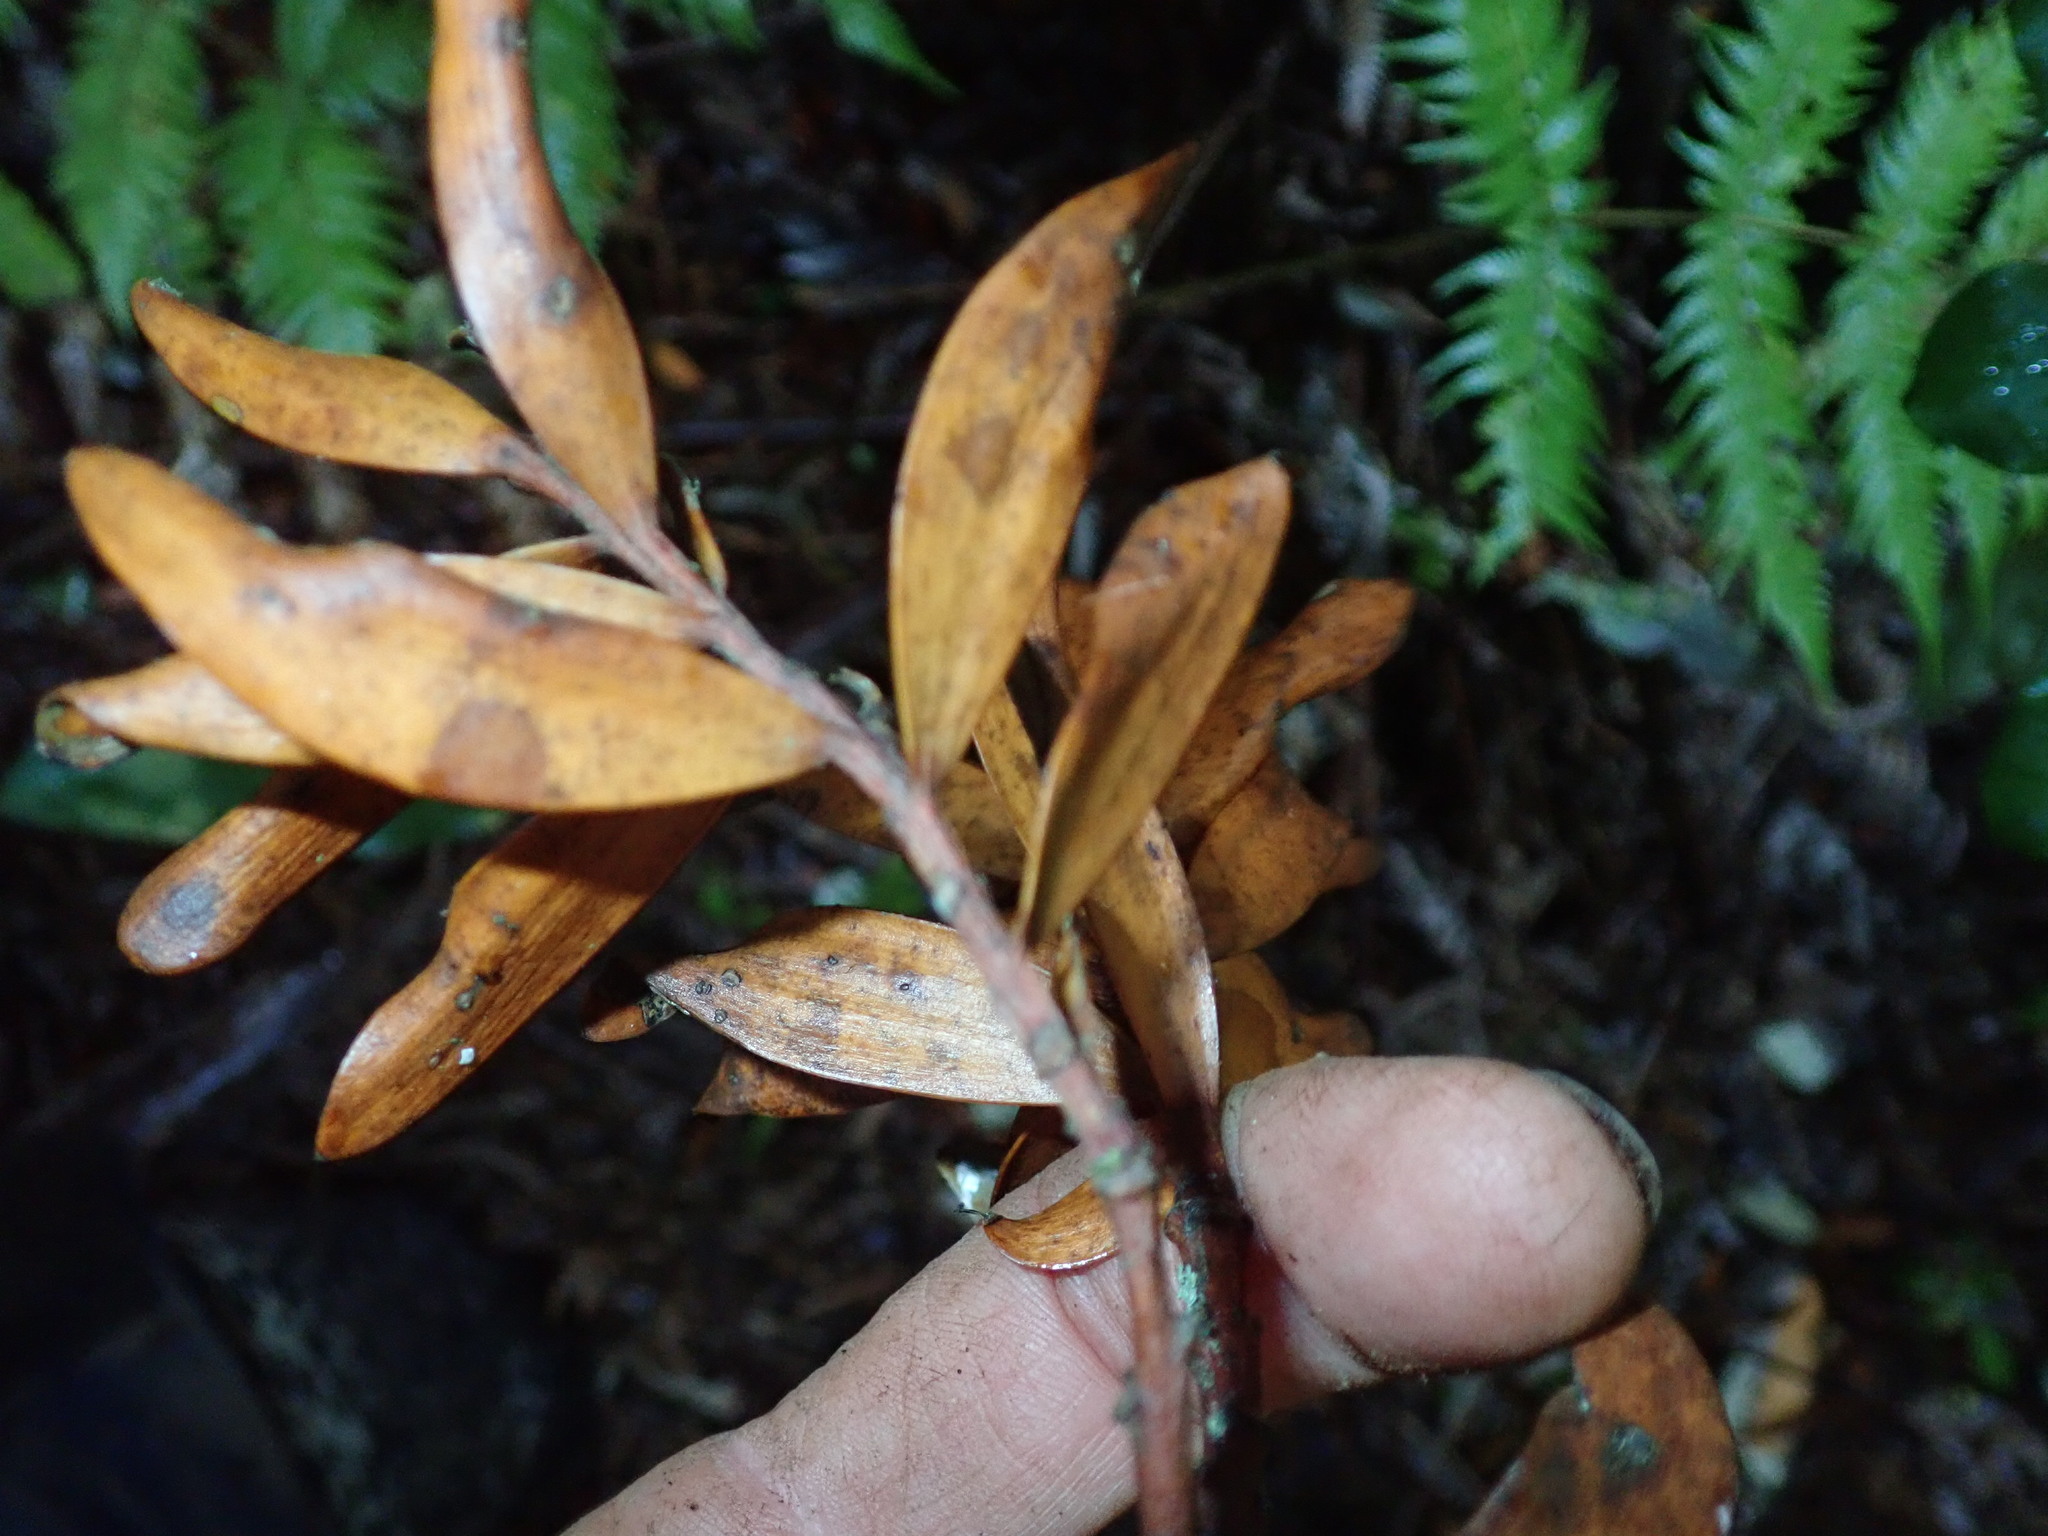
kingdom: Plantae
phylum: Tracheophyta
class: Pinopsida
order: Pinales
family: Araucariaceae
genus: Agathis
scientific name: Agathis australis
